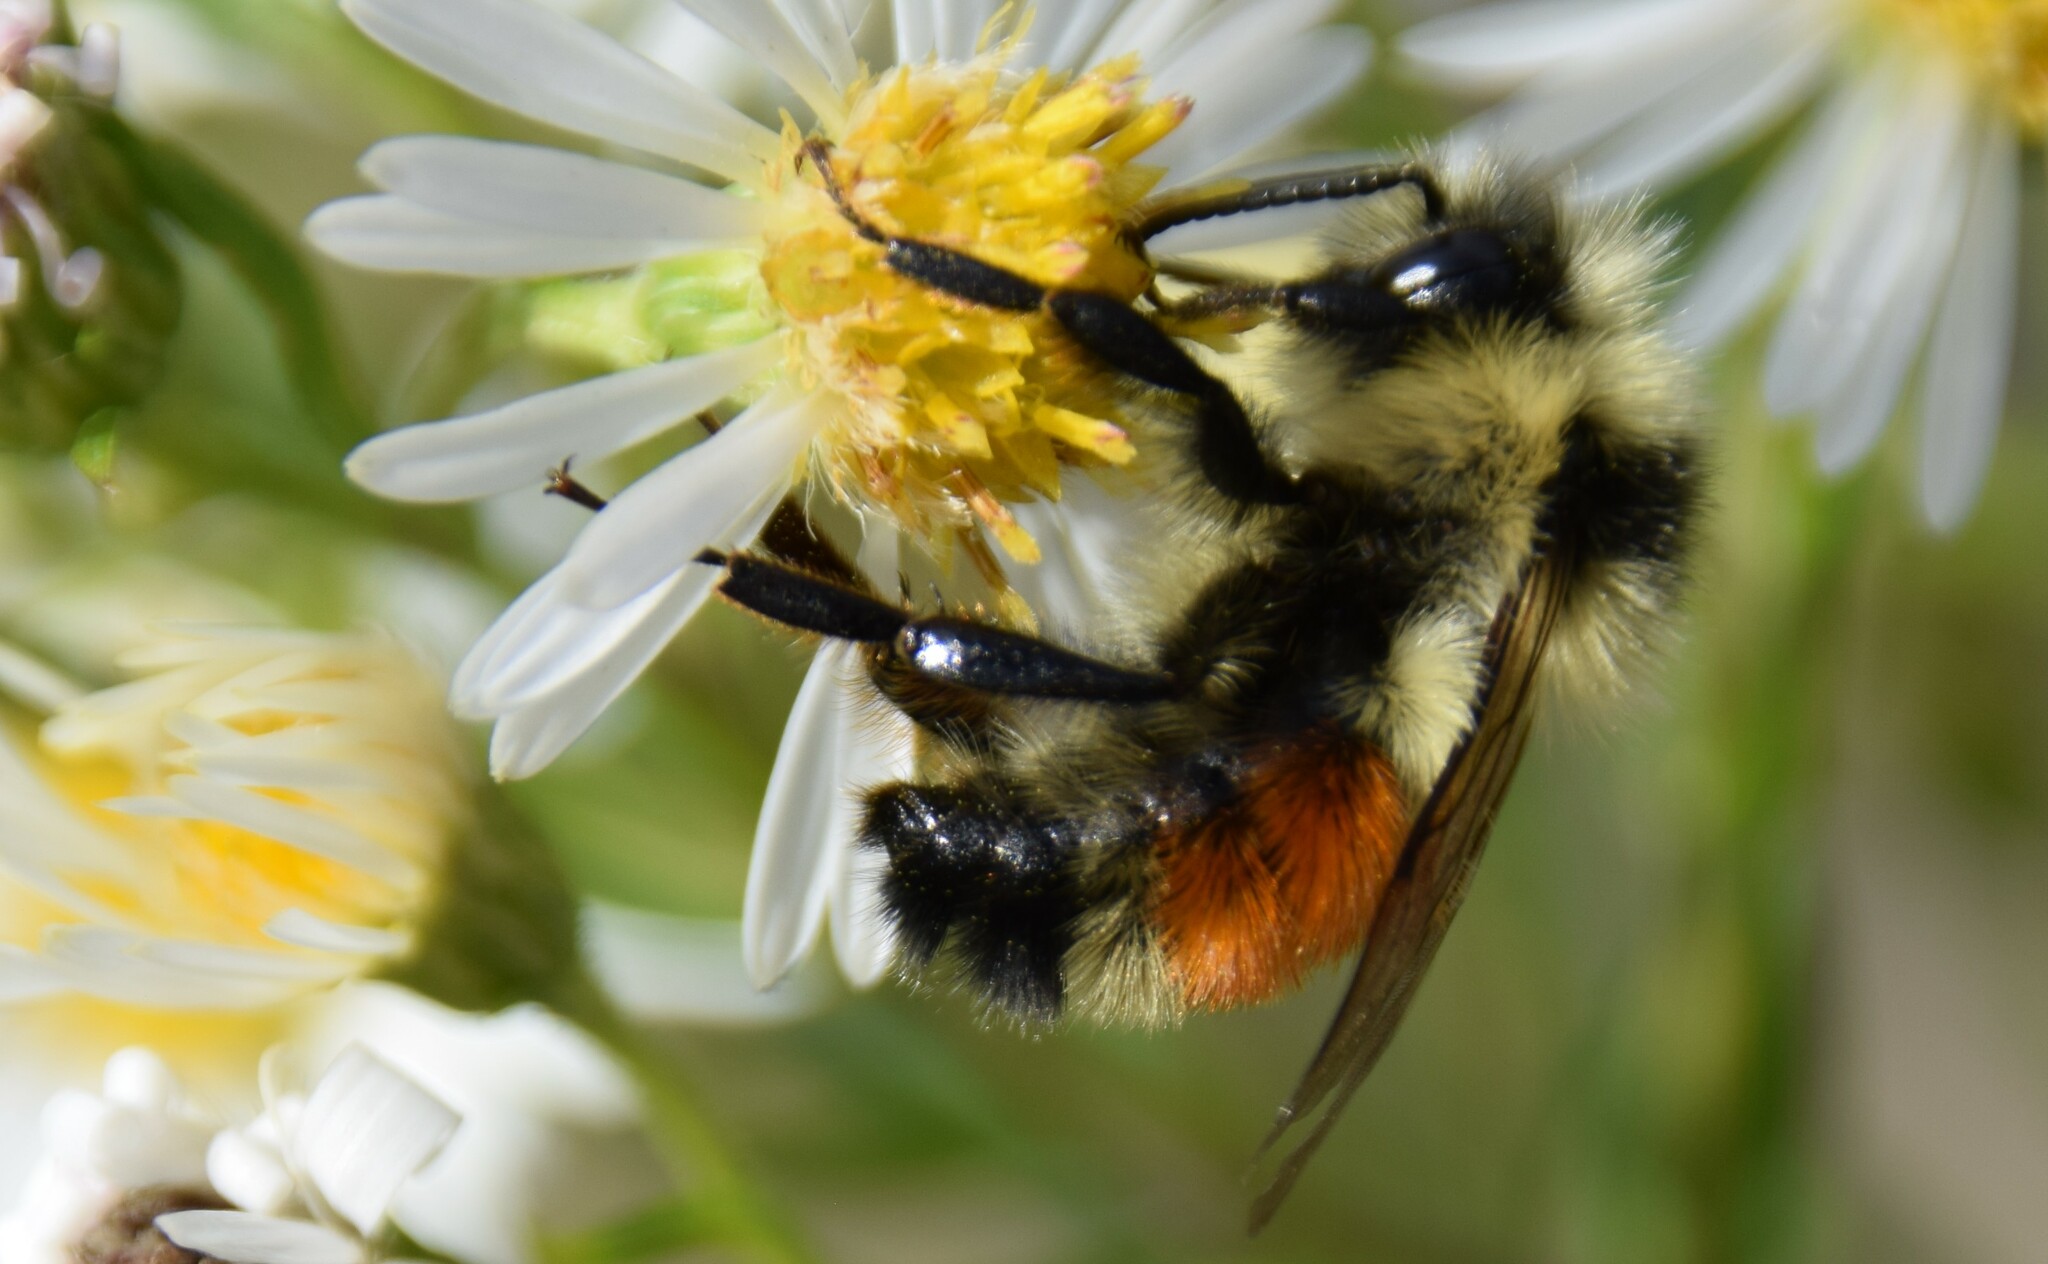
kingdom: Animalia
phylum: Arthropoda
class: Insecta
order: Hymenoptera
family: Apidae
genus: Bombus
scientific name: Bombus ternarius
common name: Tri-colored bumble bee
